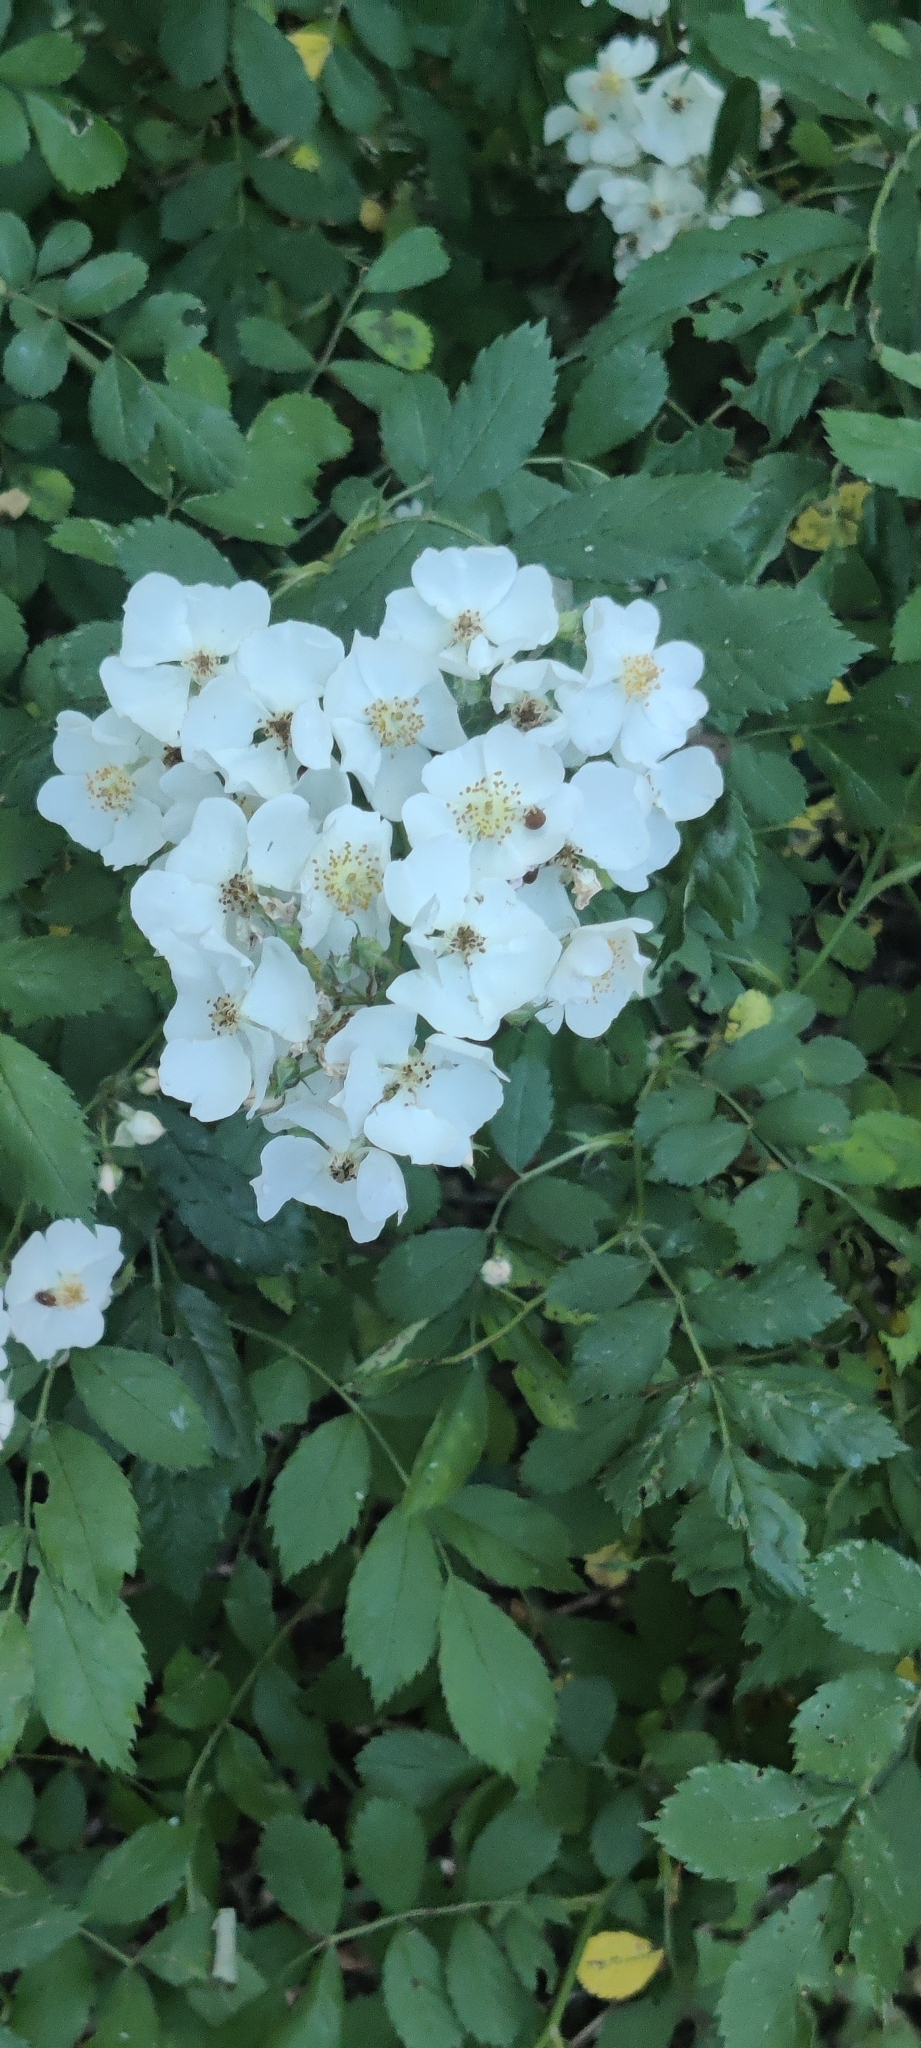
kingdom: Plantae
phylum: Tracheophyta
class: Magnoliopsida
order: Rosales
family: Rosaceae
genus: Rosa
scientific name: Rosa multiflora
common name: Multiflora rose
